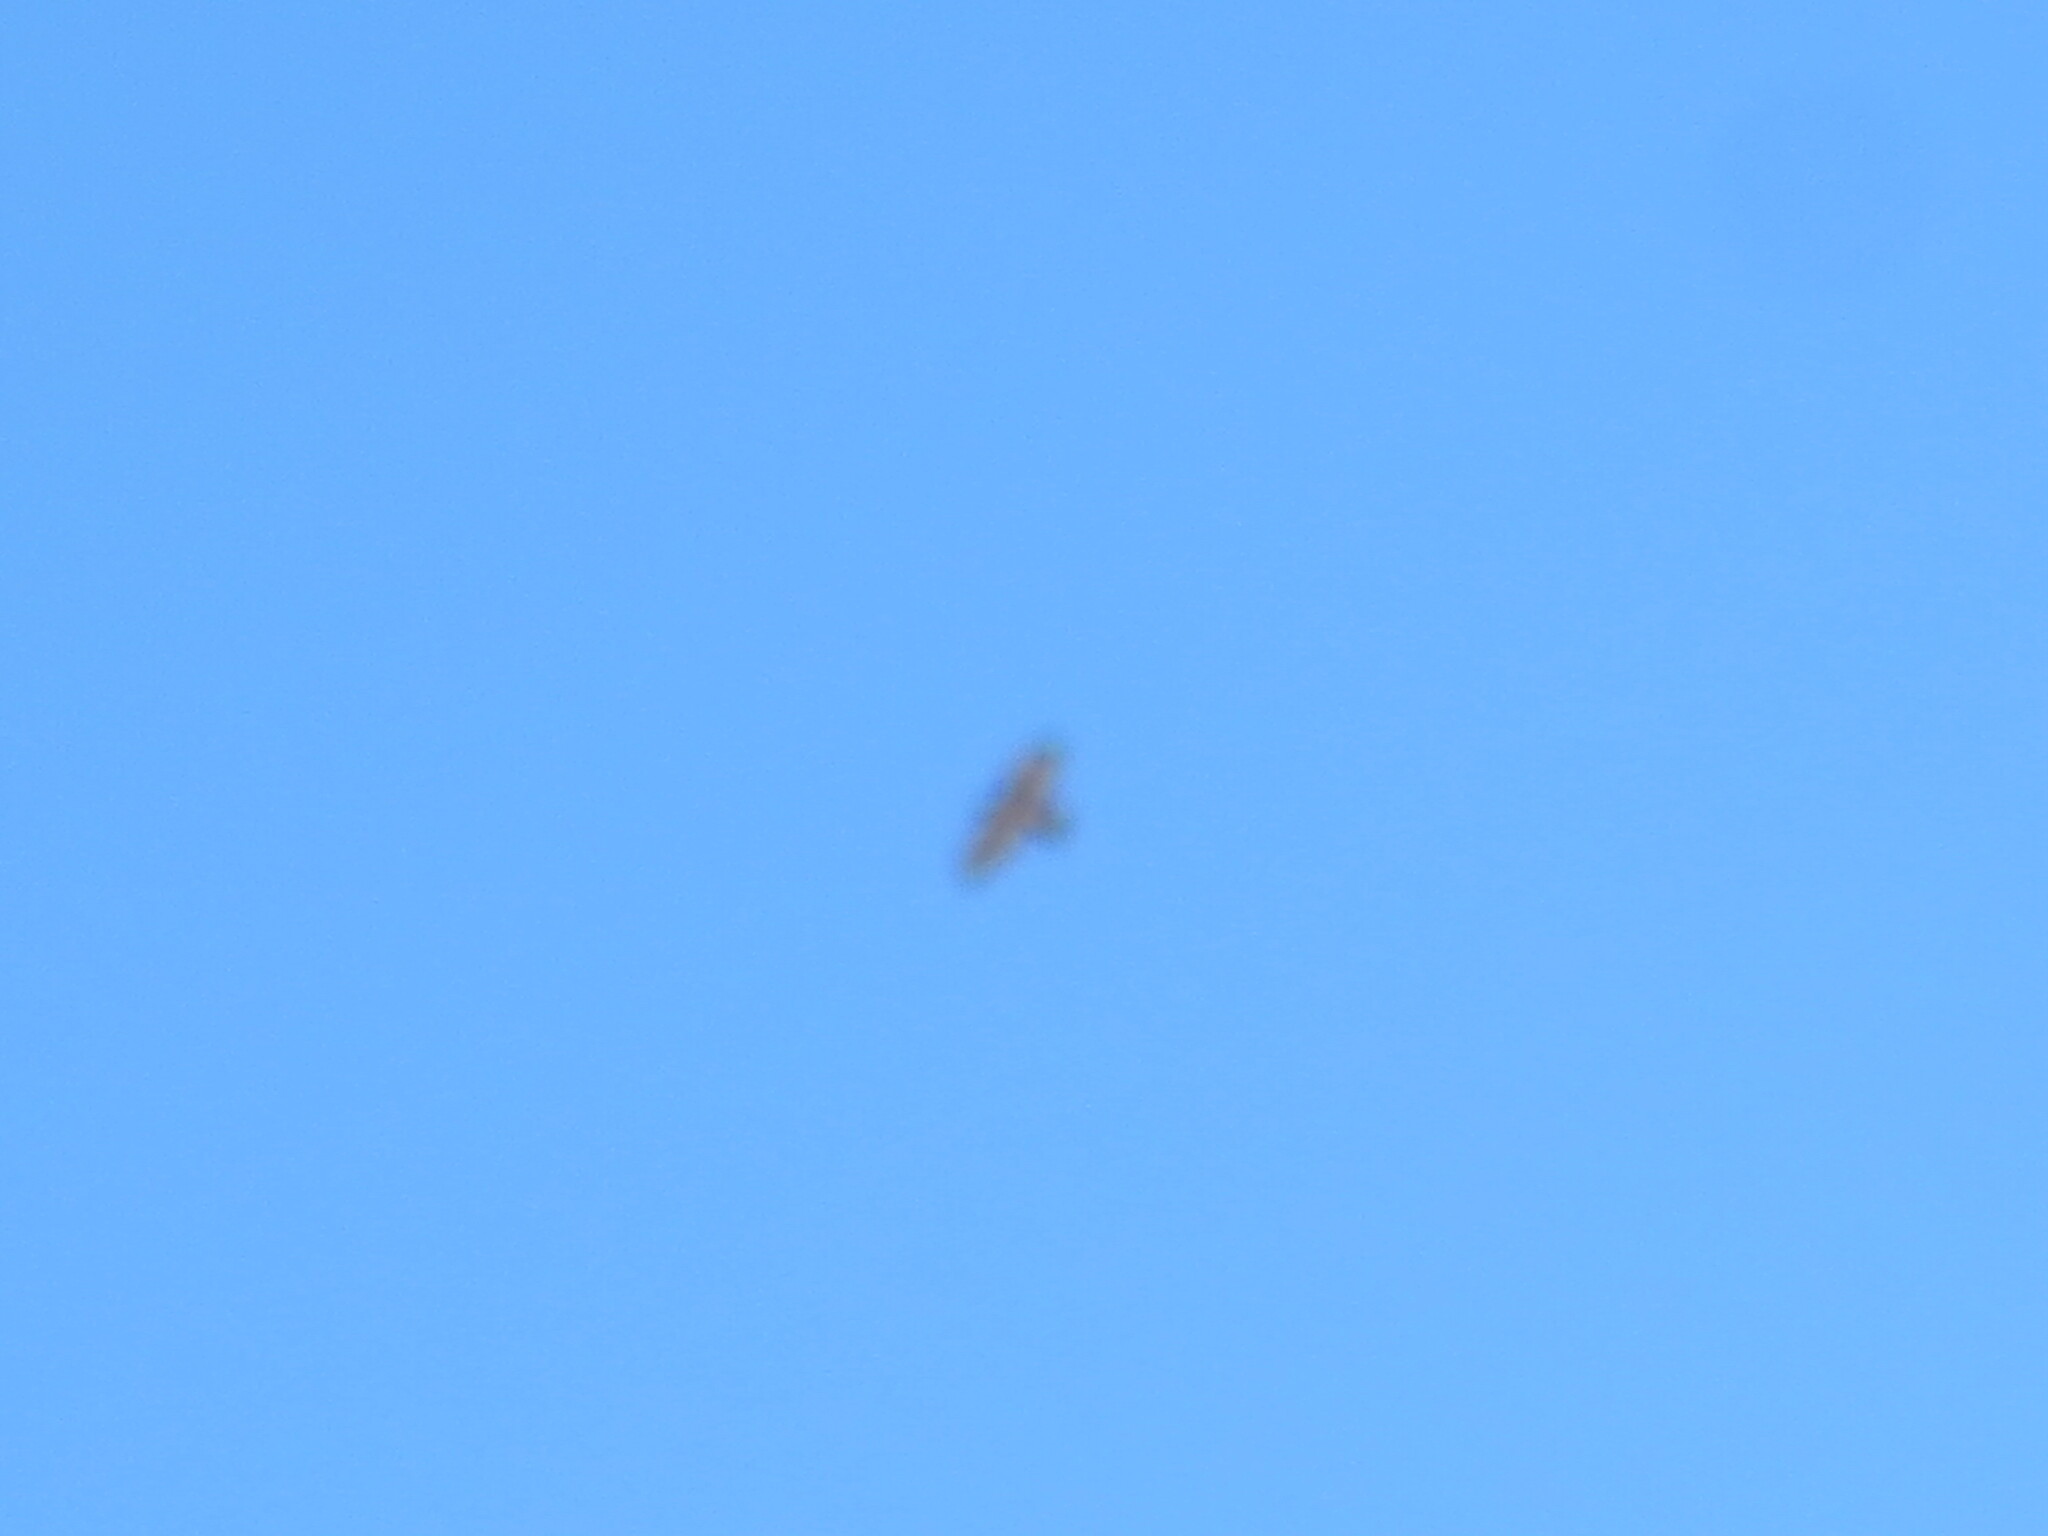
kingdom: Animalia
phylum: Chordata
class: Aves
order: Accipitriformes
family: Accipitridae
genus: Buteo
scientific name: Buteo jamaicensis
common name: Red-tailed hawk
